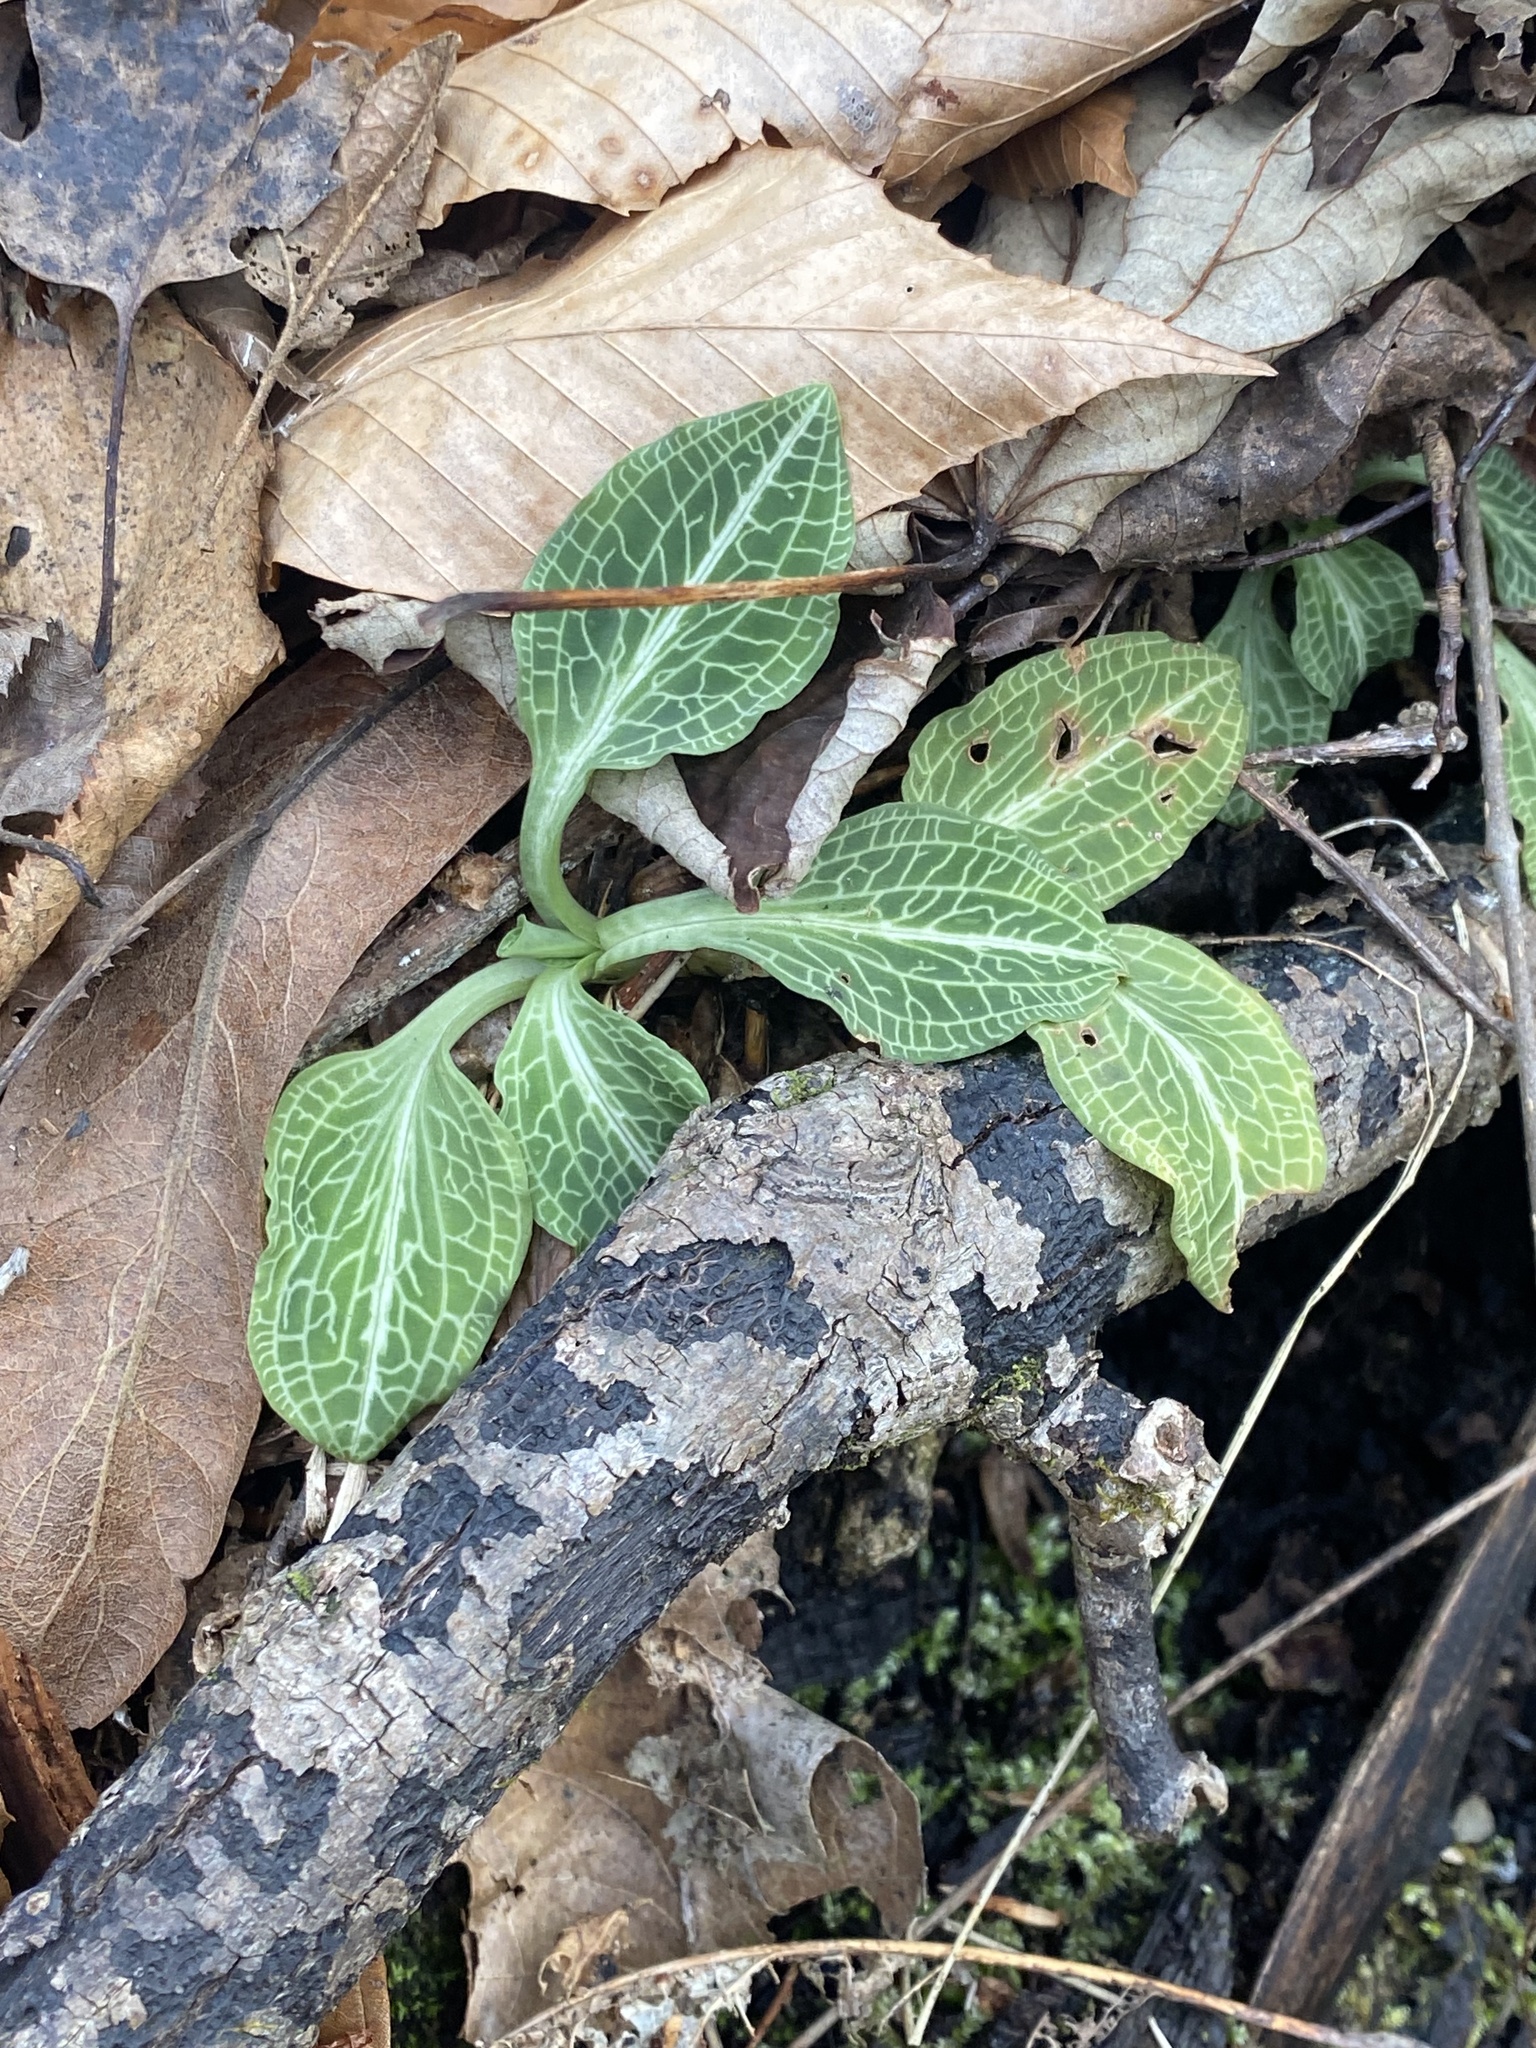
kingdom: Plantae
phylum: Tracheophyta
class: Liliopsida
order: Asparagales
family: Orchidaceae
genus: Goodyera
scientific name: Goodyera pubescens
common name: Downy rattlesnake-plantain
